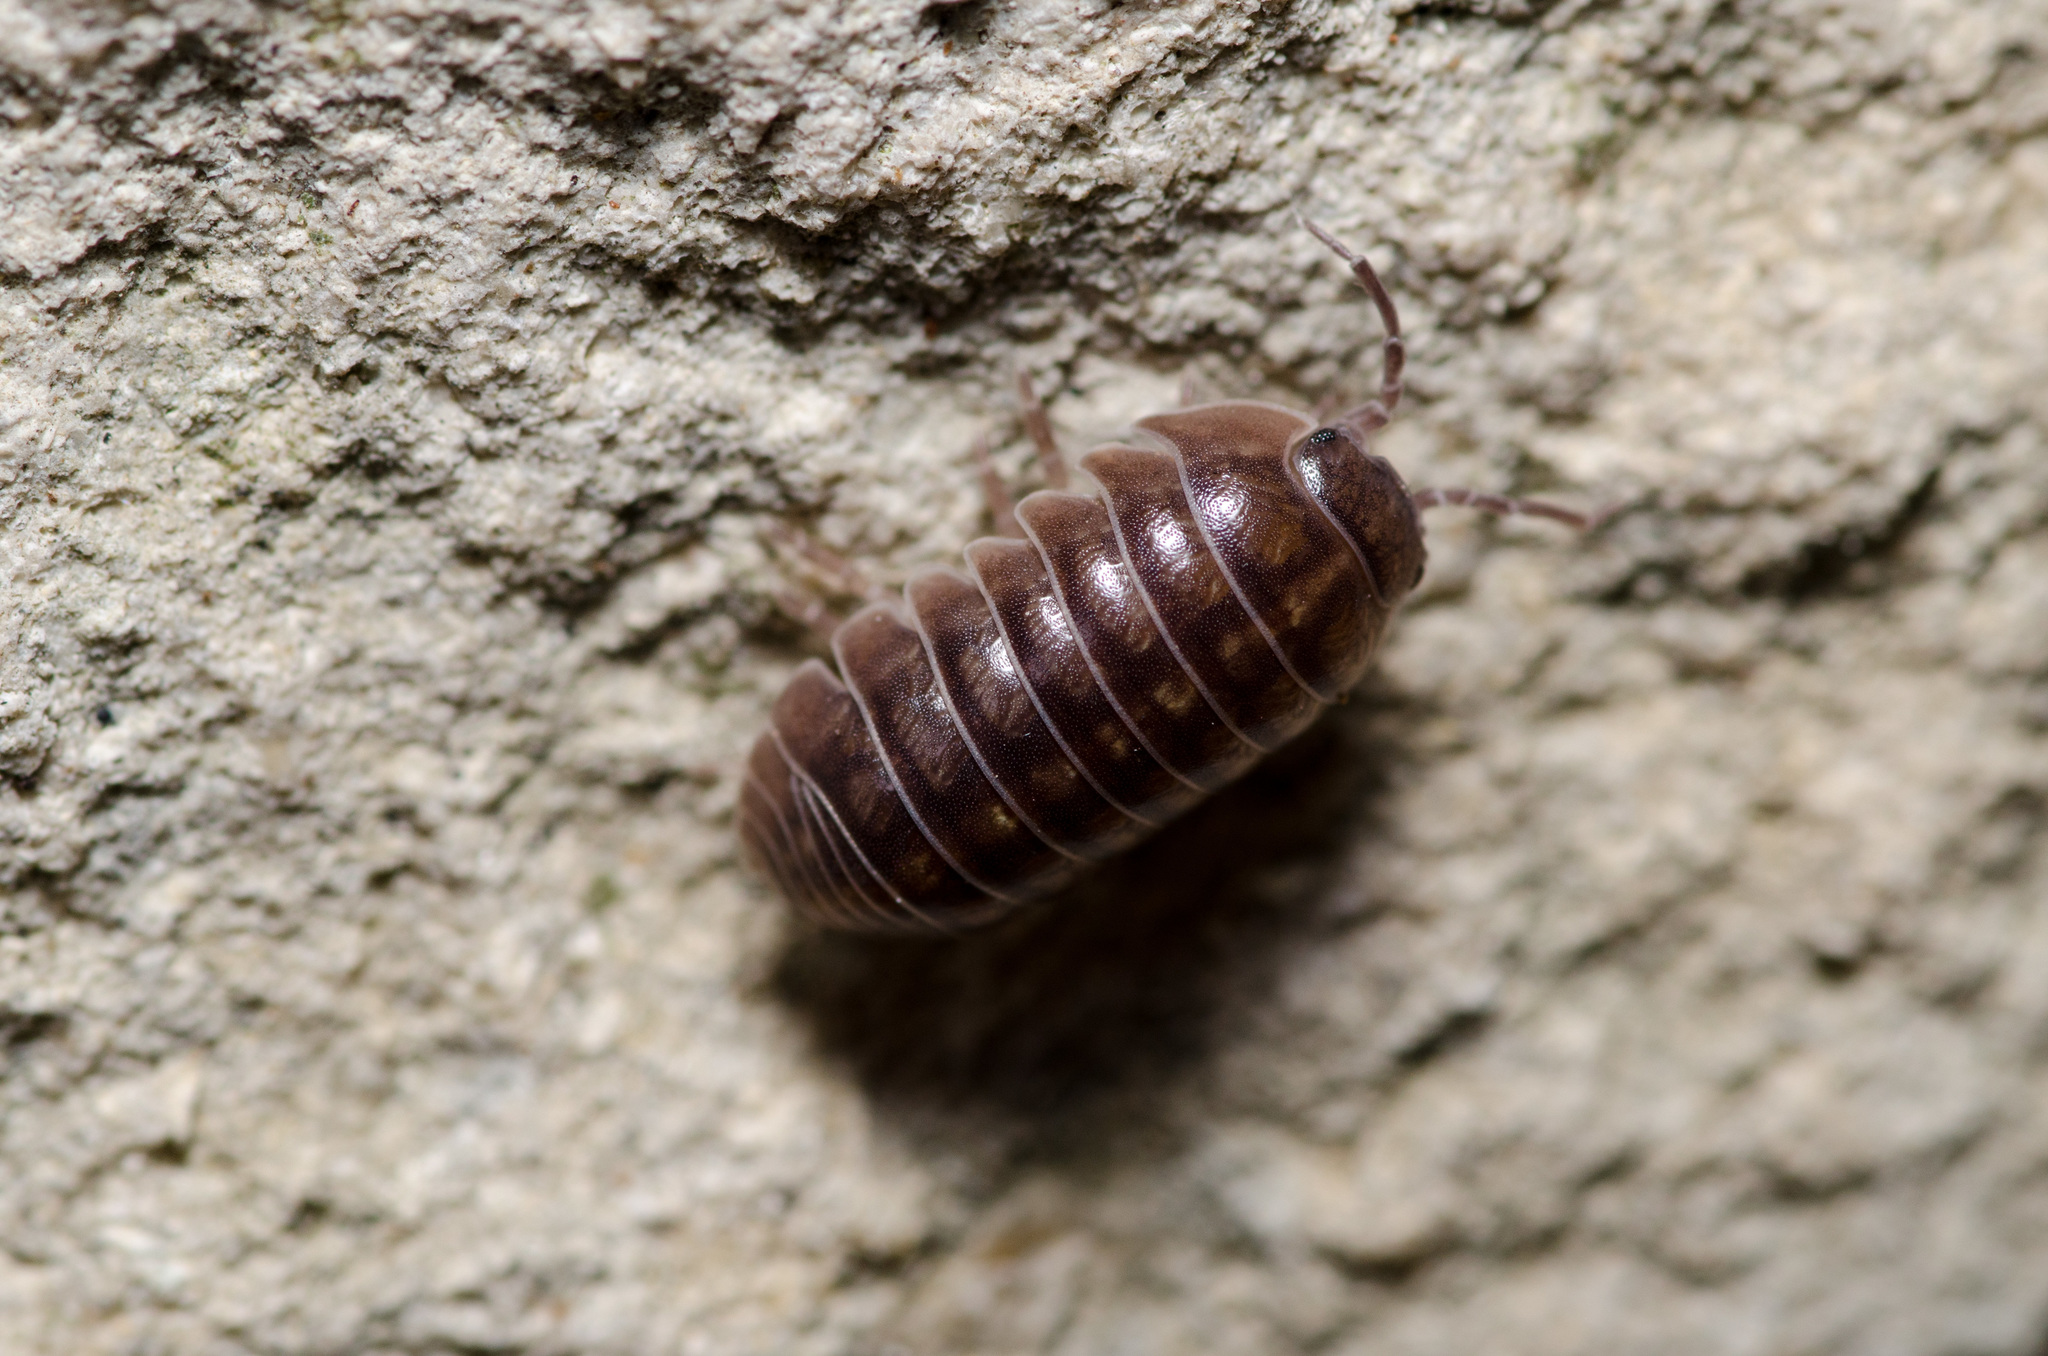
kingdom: Animalia
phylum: Arthropoda
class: Malacostraca
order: Isopoda
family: Armadillidiidae
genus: Armadillidium
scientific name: Armadillidium vulgare
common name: Common pill woodlouse
